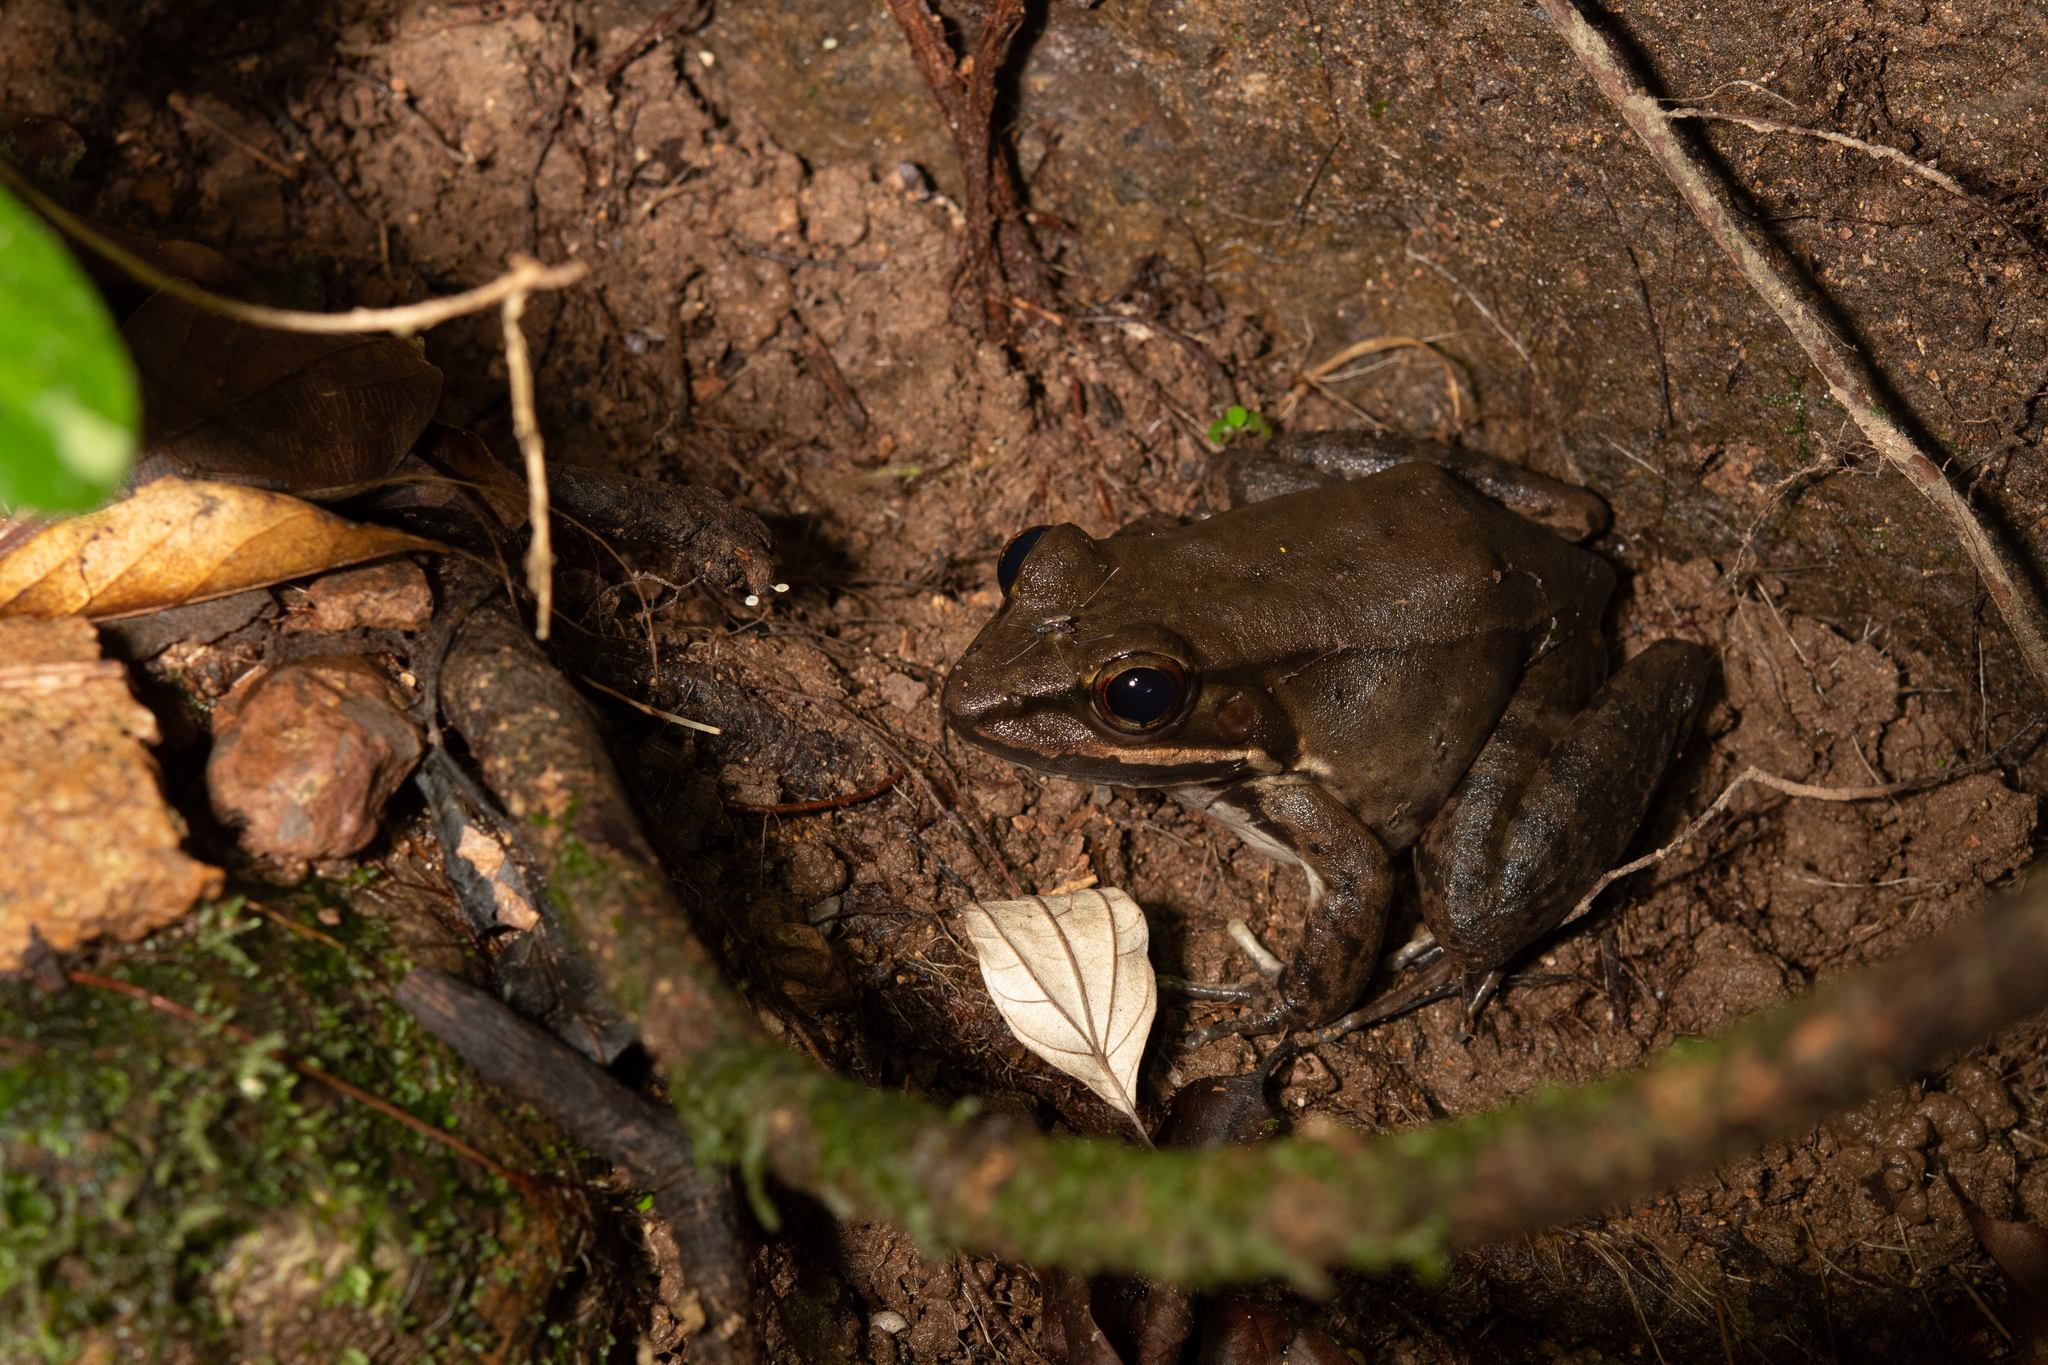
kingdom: Animalia
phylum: Chordata
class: Amphibia
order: Anura
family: Ranidae
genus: Lithobates
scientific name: Lithobates maculatus
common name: Highland frog
